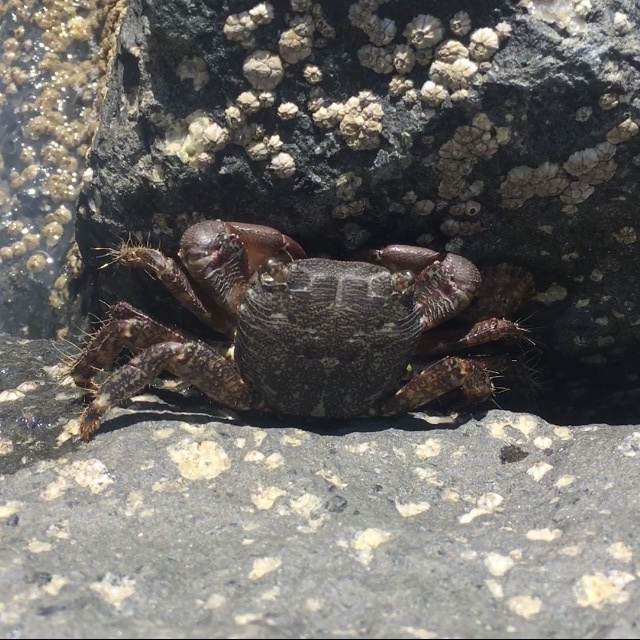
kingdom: Animalia
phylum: Arthropoda
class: Malacostraca
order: Decapoda
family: Grapsidae
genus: Pachygrapsus
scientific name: Pachygrapsus marmoratus
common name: Marbled rock crab
